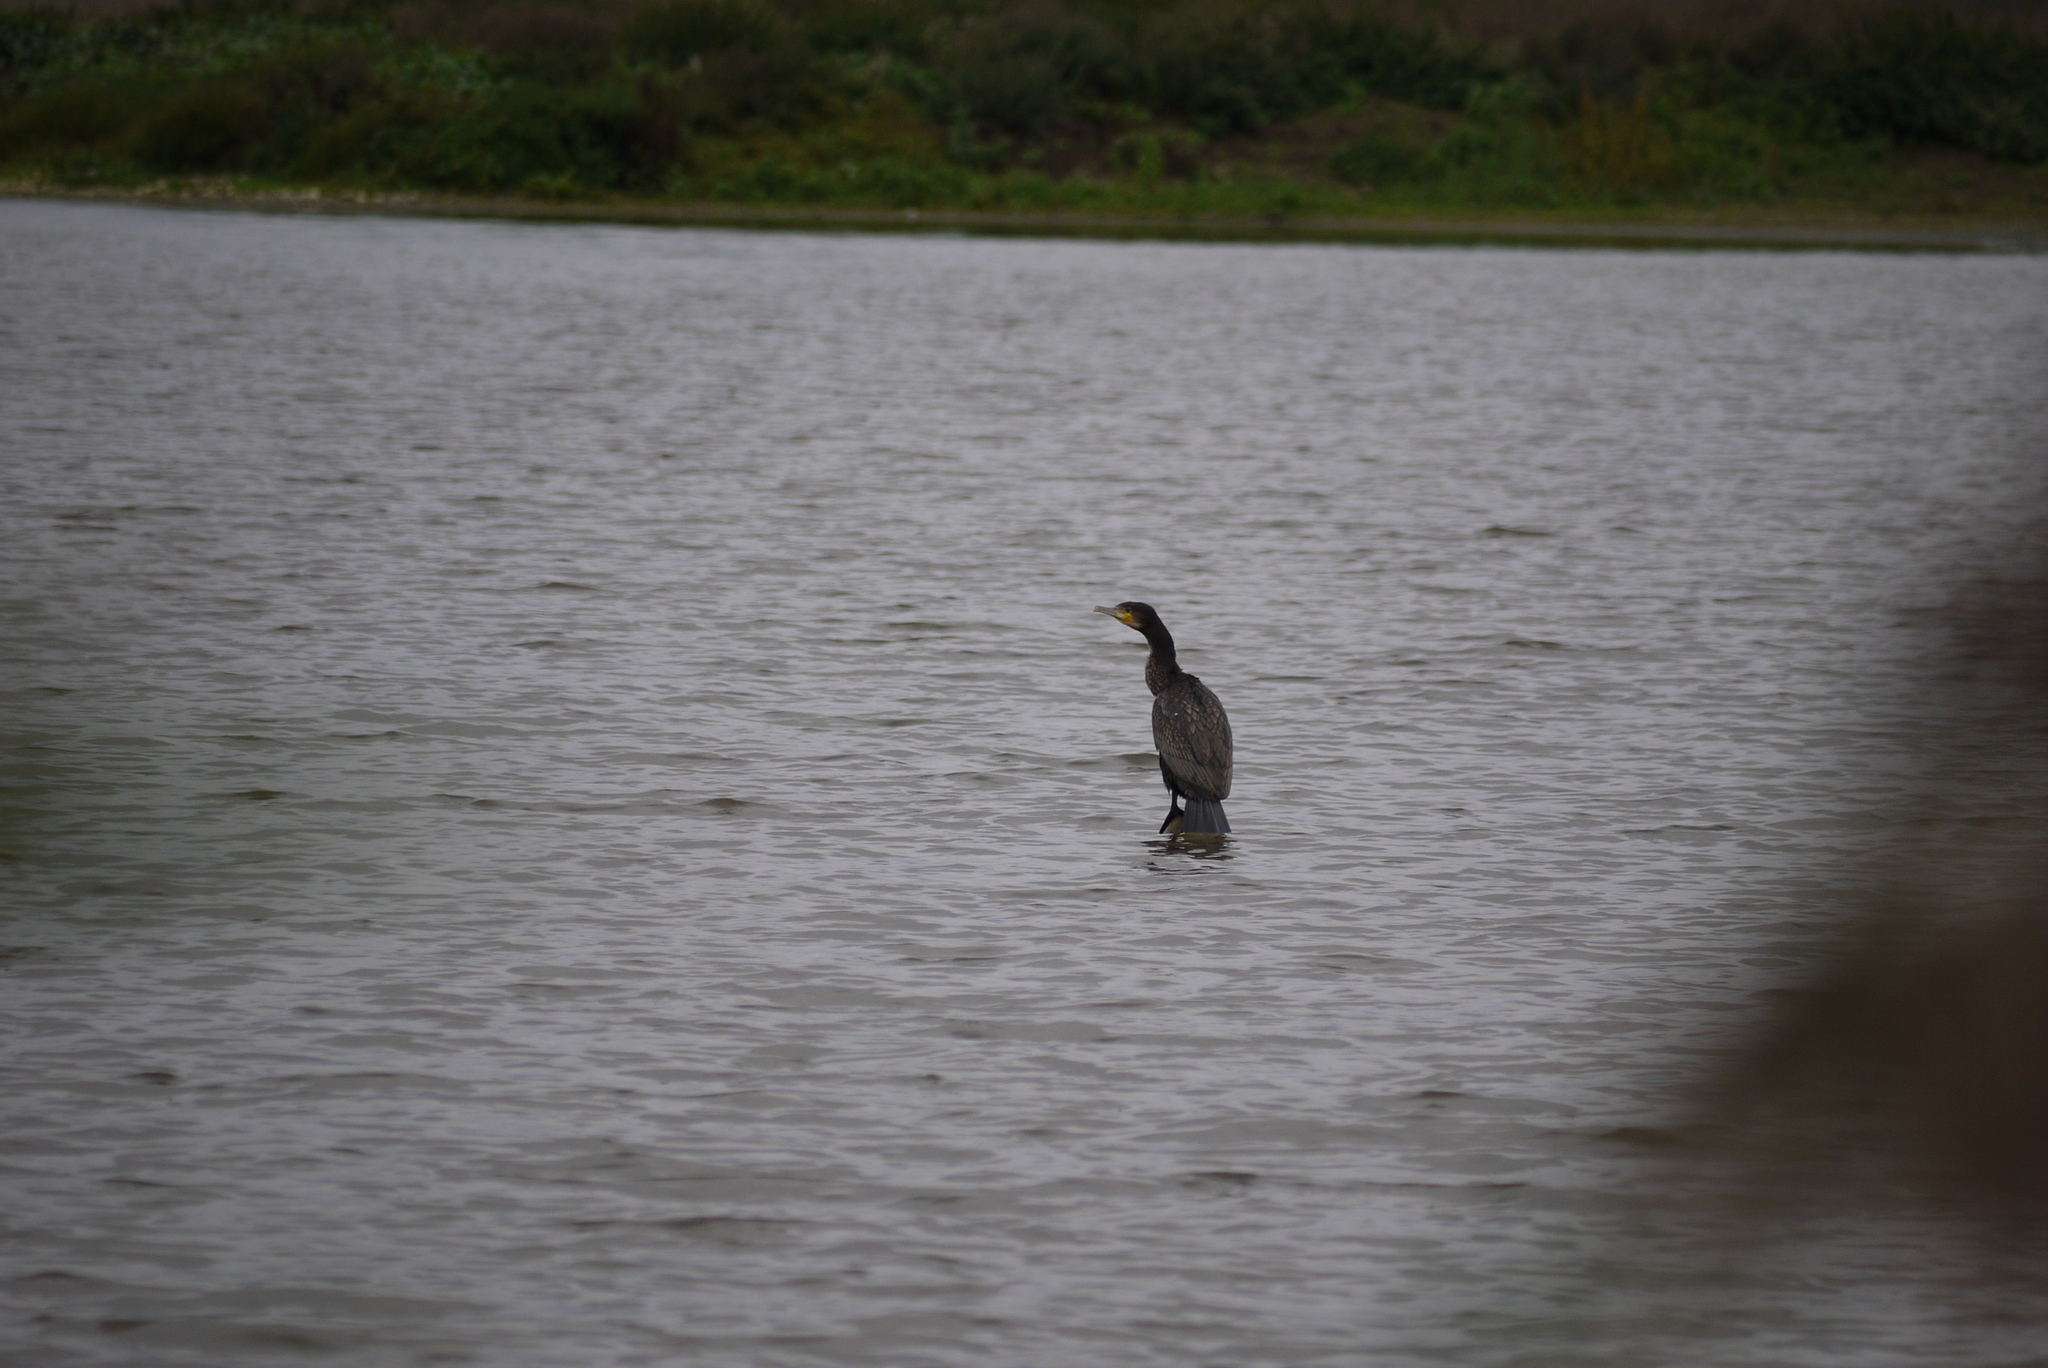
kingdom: Animalia
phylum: Chordata
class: Aves
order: Suliformes
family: Phalacrocoracidae
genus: Phalacrocorax
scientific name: Phalacrocorax carbo
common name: Great cormorant
